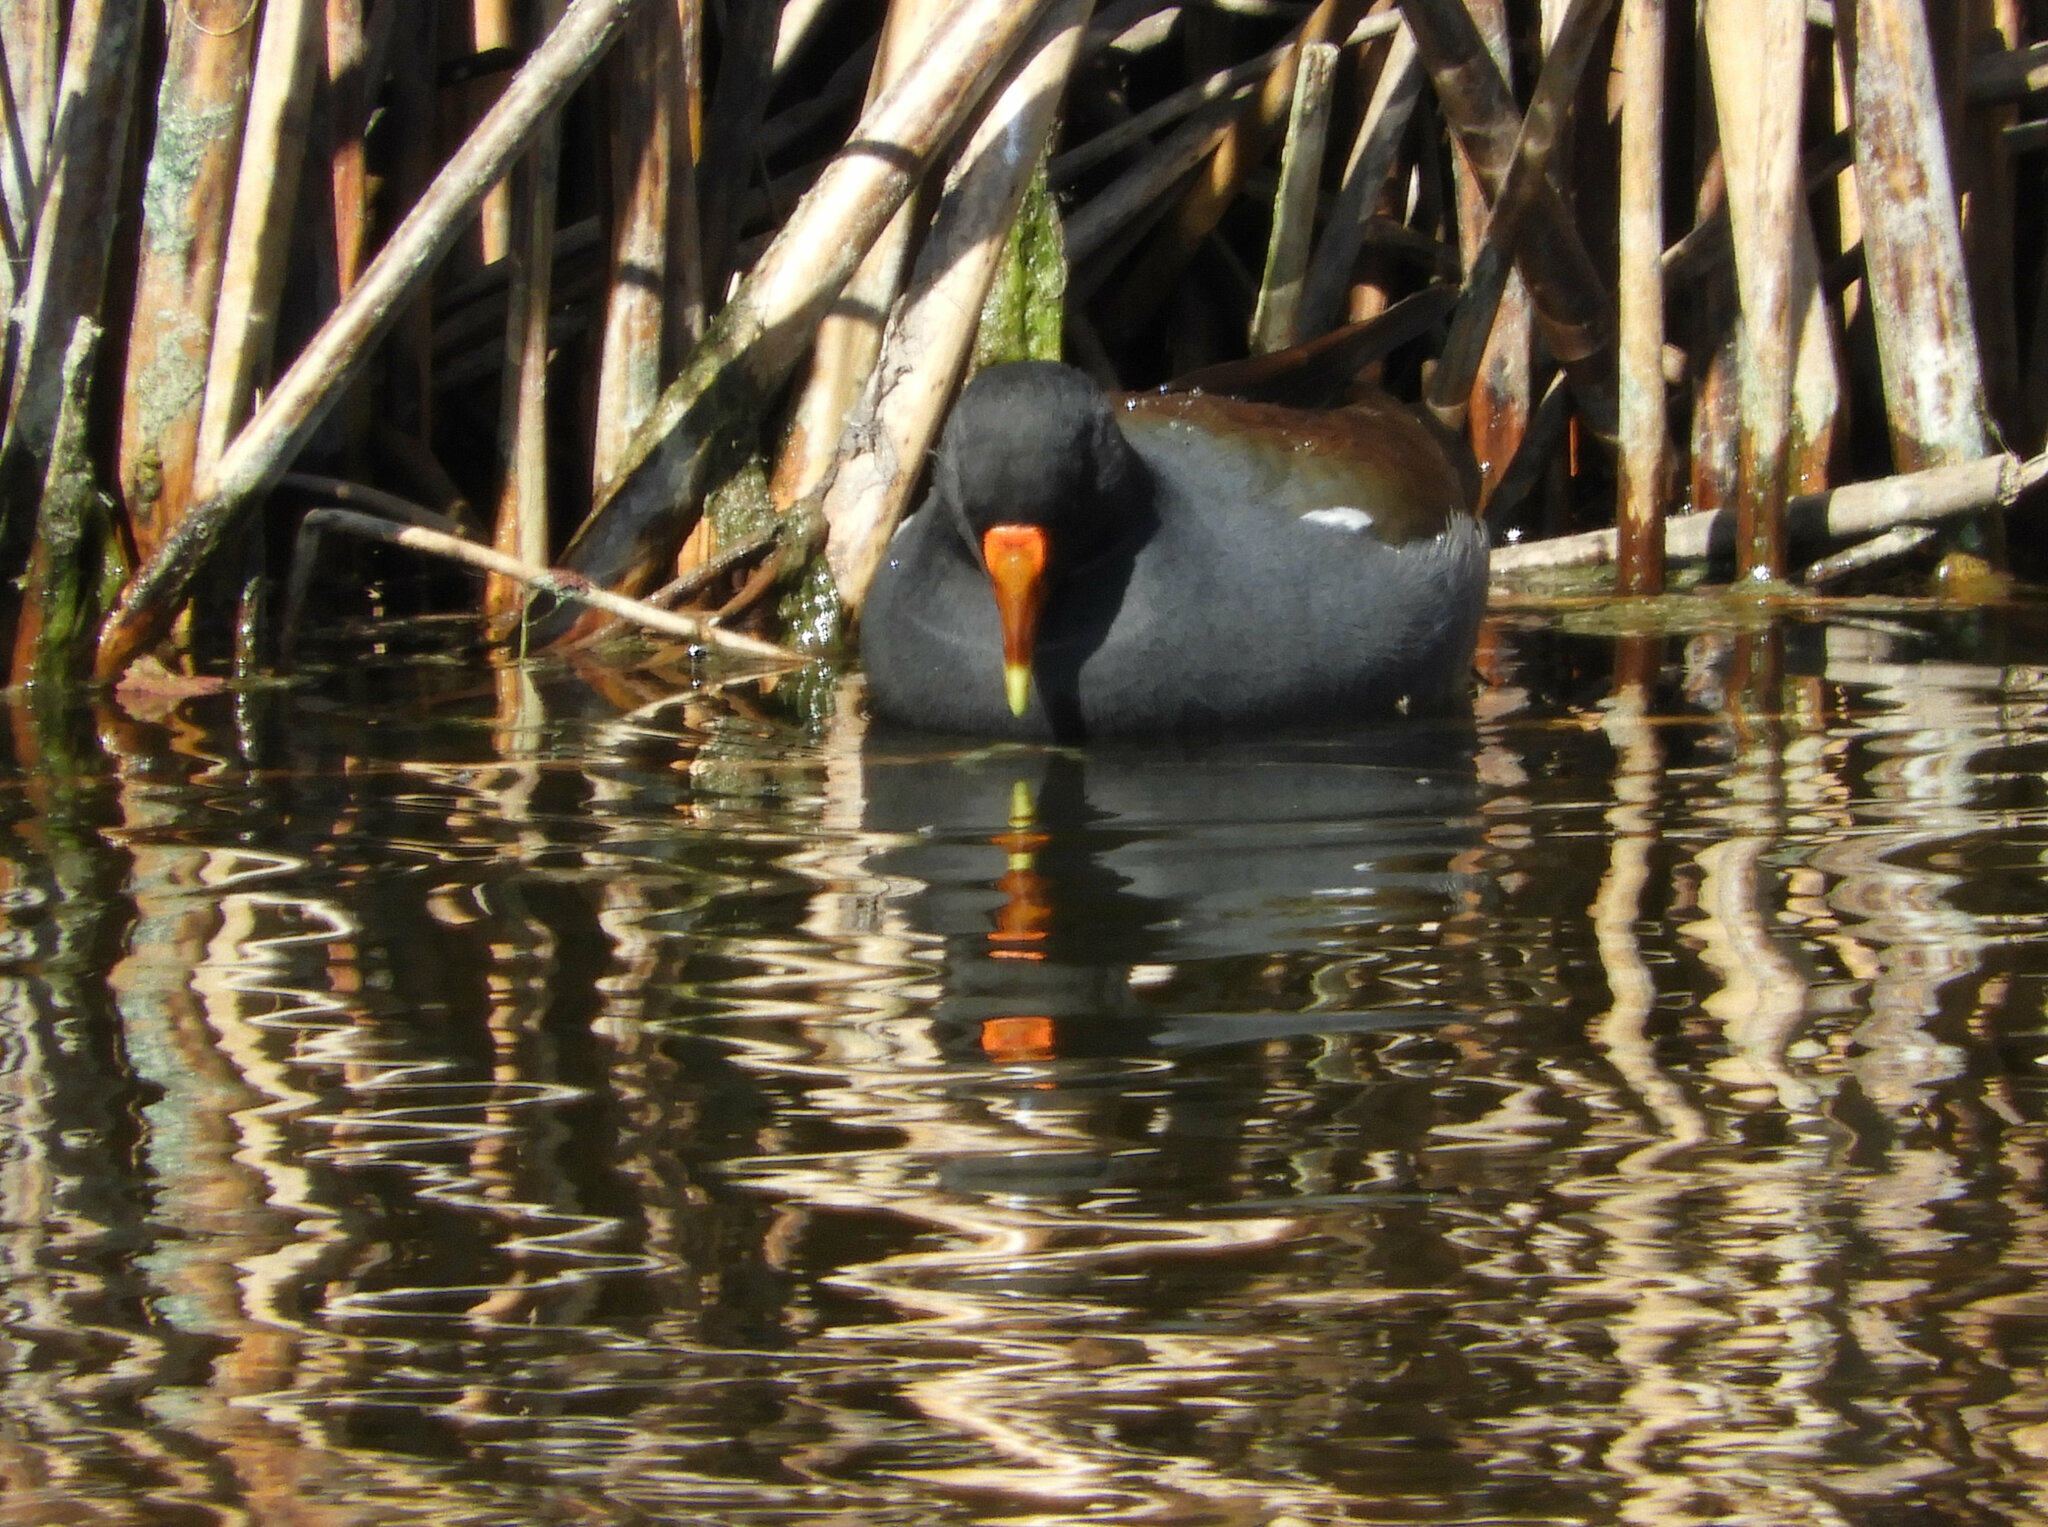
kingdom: Animalia
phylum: Chordata
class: Aves
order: Gruiformes
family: Rallidae
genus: Gallinula
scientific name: Gallinula chloropus
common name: Common moorhen
